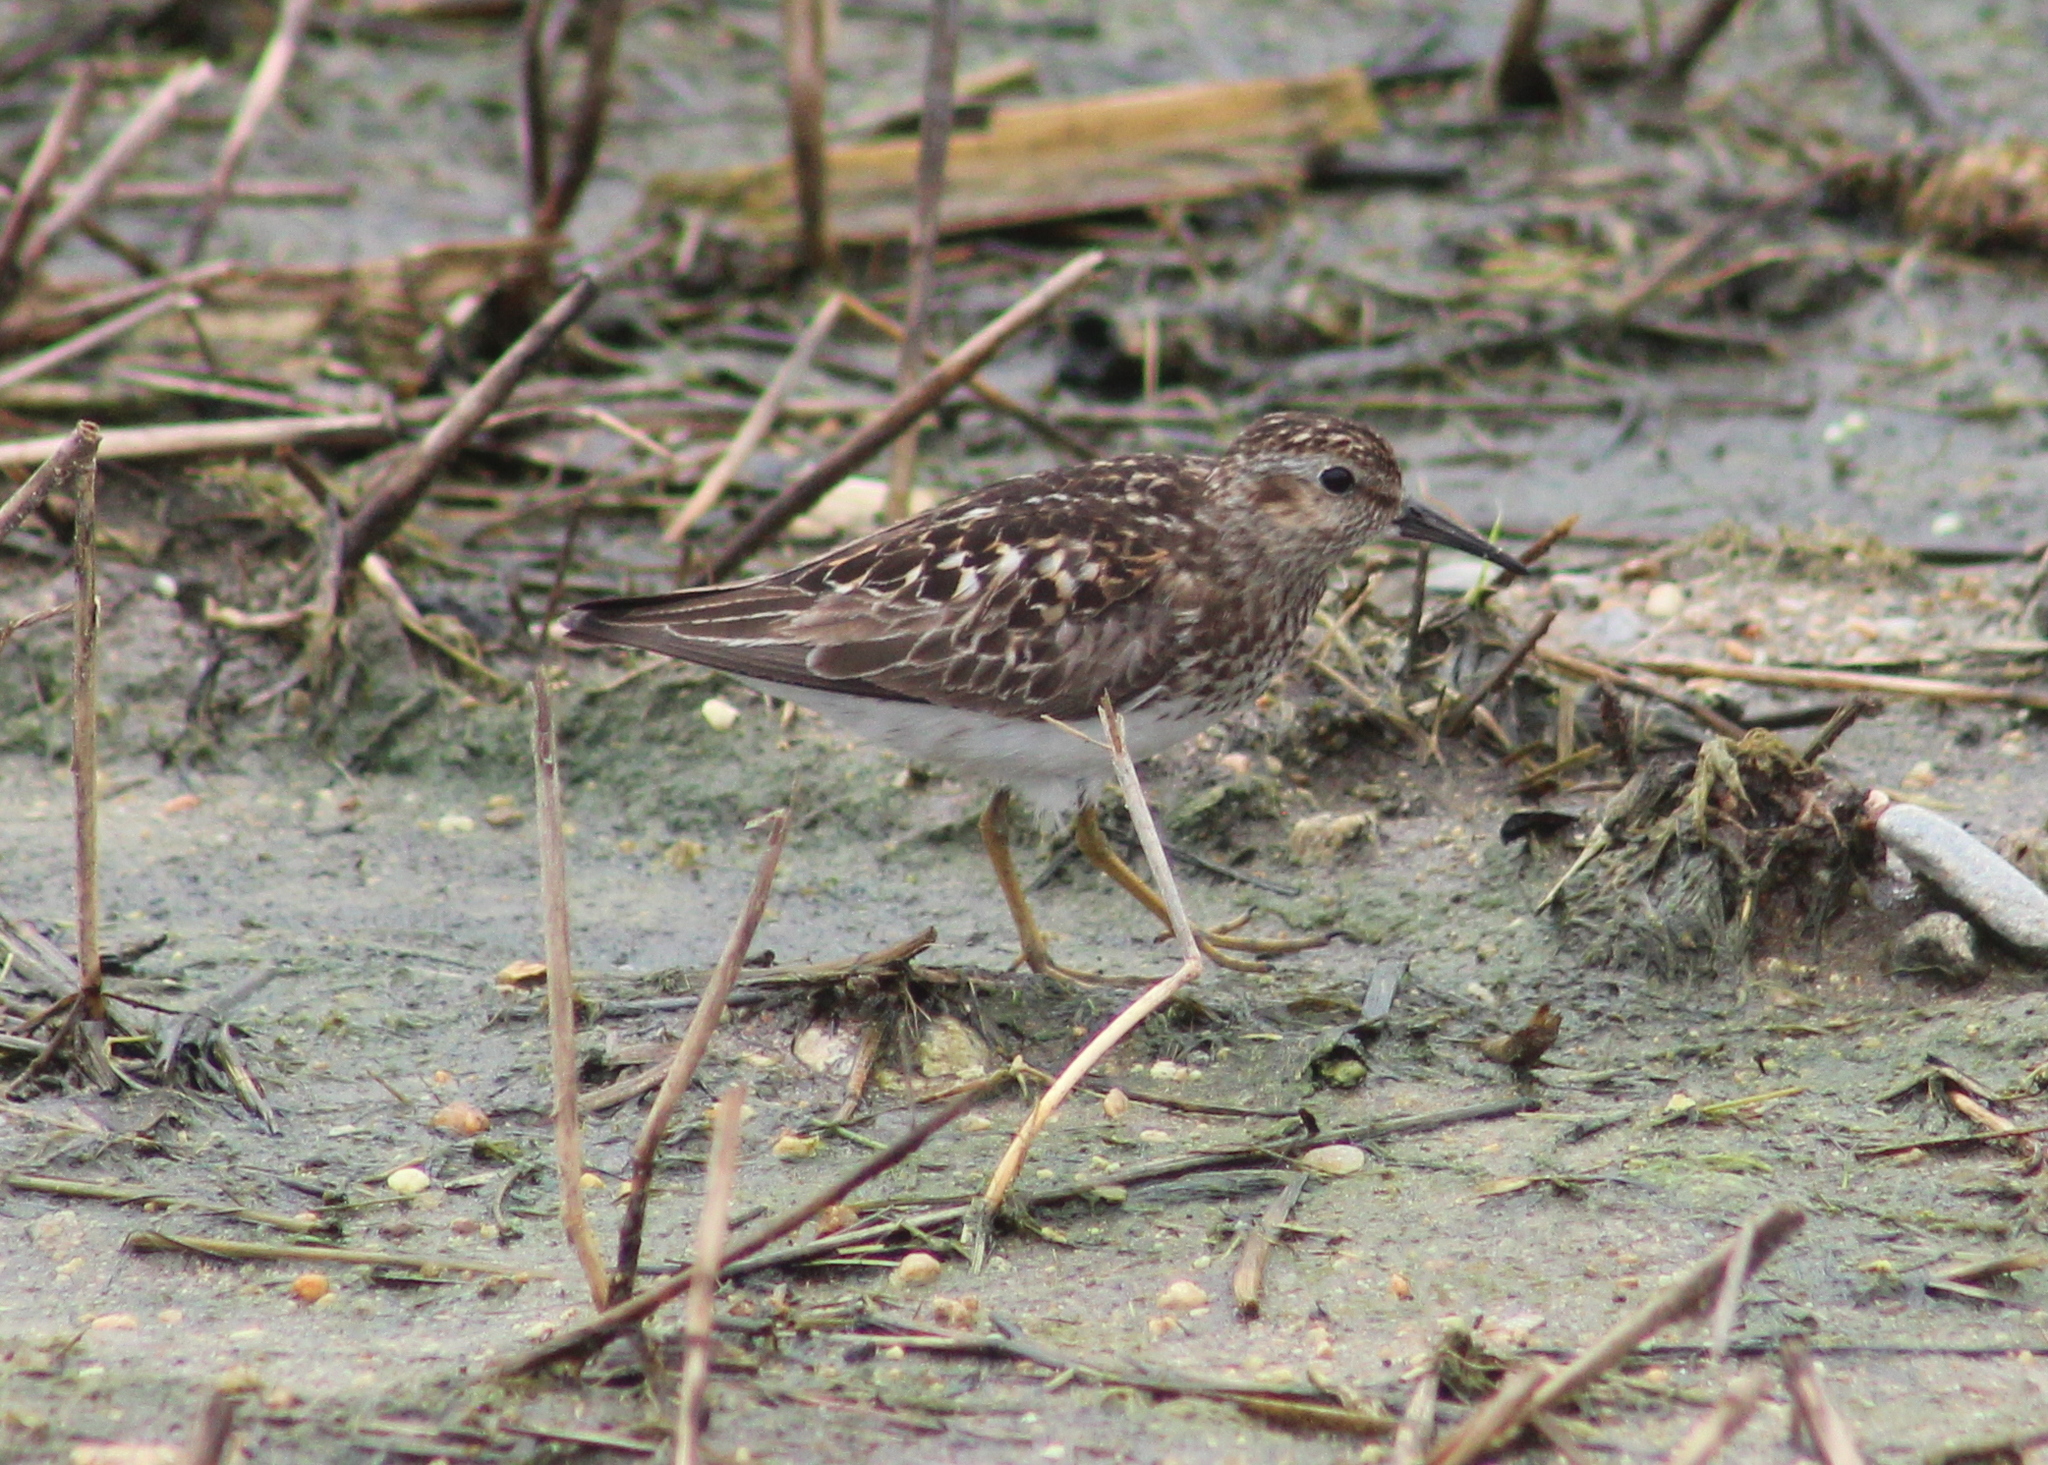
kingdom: Animalia
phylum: Chordata
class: Aves
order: Charadriiformes
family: Scolopacidae
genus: Calidris
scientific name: Calidris minutilla
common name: Least sandpiper
